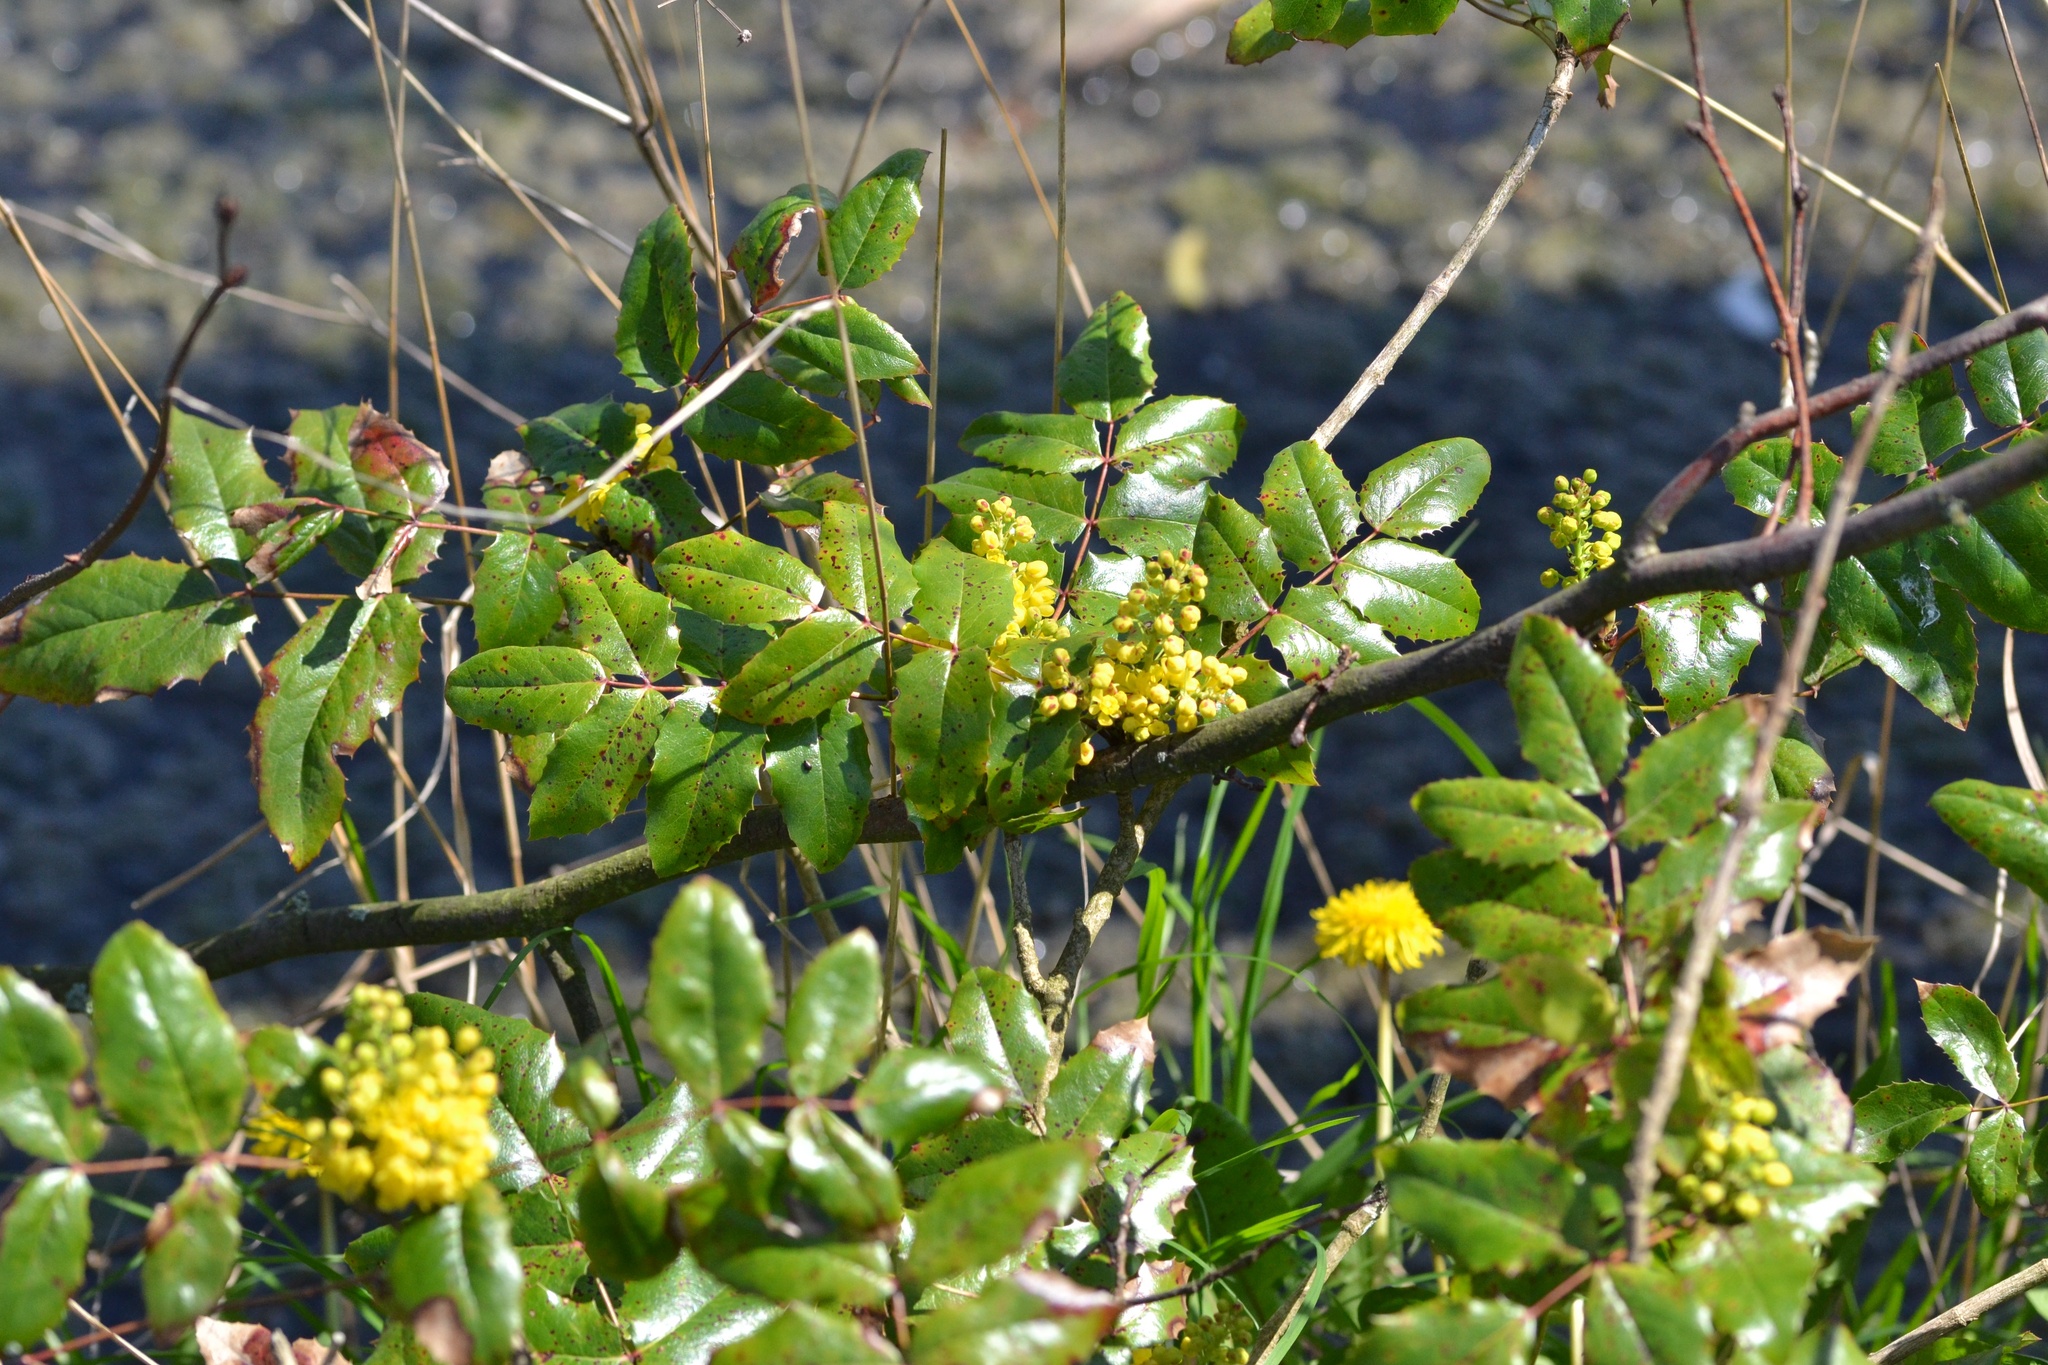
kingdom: Plantae
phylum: Tracheophyta
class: Magnoliopsida
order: Ranunculales
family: Berberidaceae
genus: Mahonia
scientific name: Mahonia aquifolium
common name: Oregon-grape
